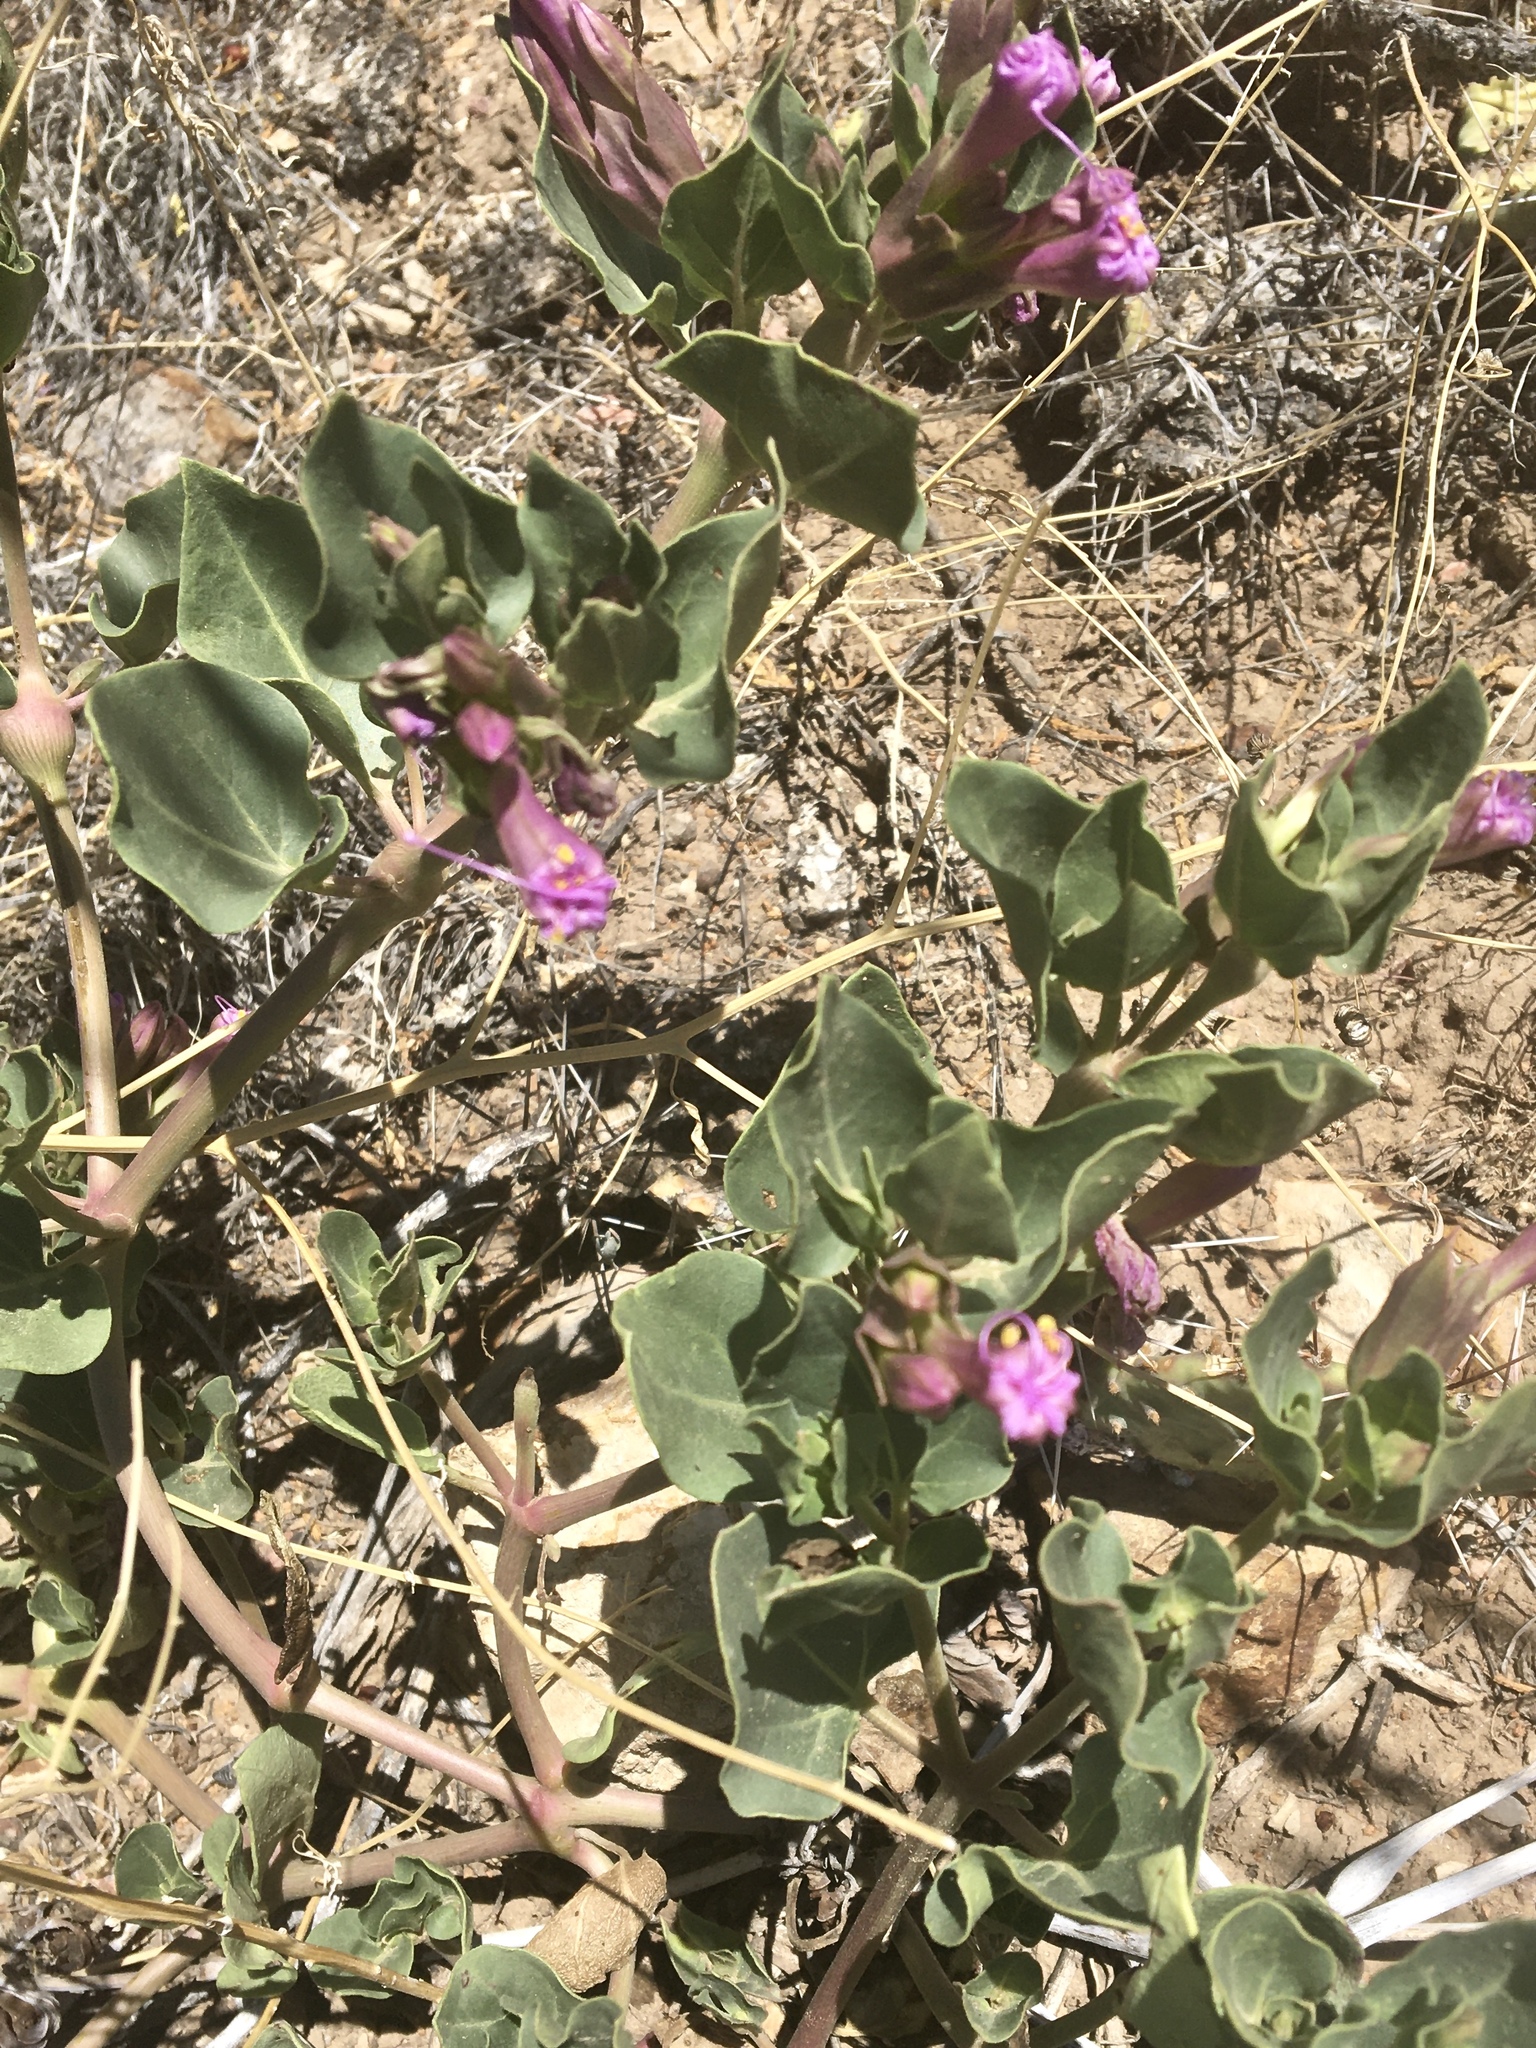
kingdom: Plantae
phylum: Tracheophyta
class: Magnoliopsida
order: Caryophyllales
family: Nyctaginaceae
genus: Mirabilis
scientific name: Mirabilis multiflora
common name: Froebel's four-o'clock
